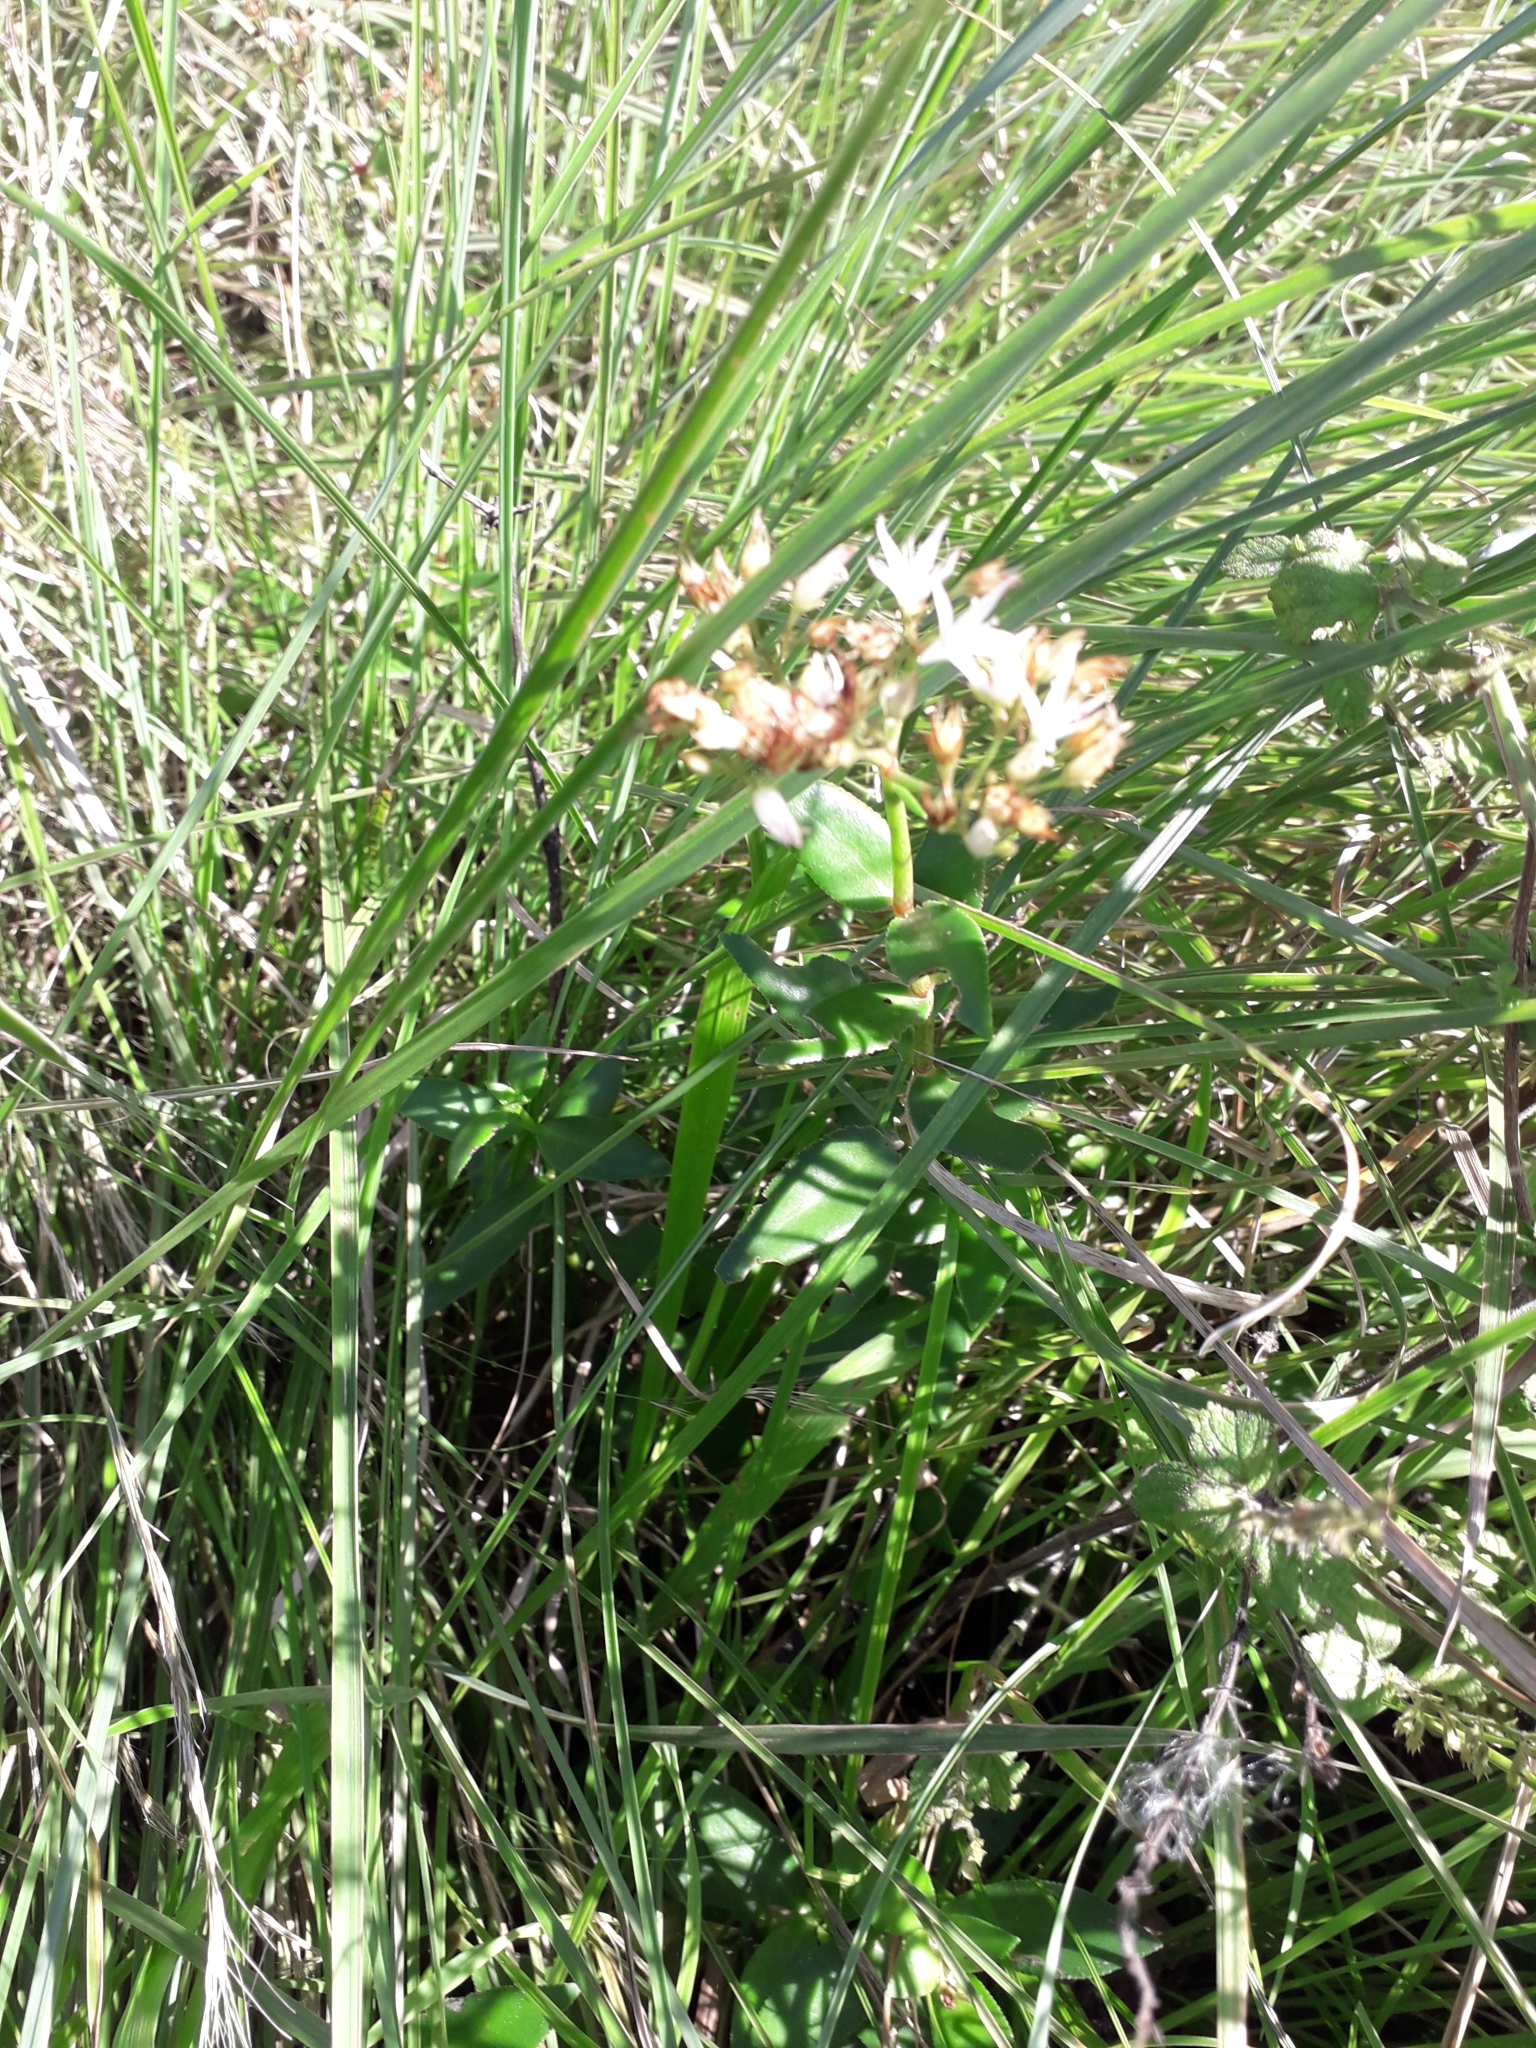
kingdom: Plantae
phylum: Tracheophyta
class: Magnoliopsida
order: Saxifragales
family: Crassulaceae
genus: Crassula
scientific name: Crassula pellucida
